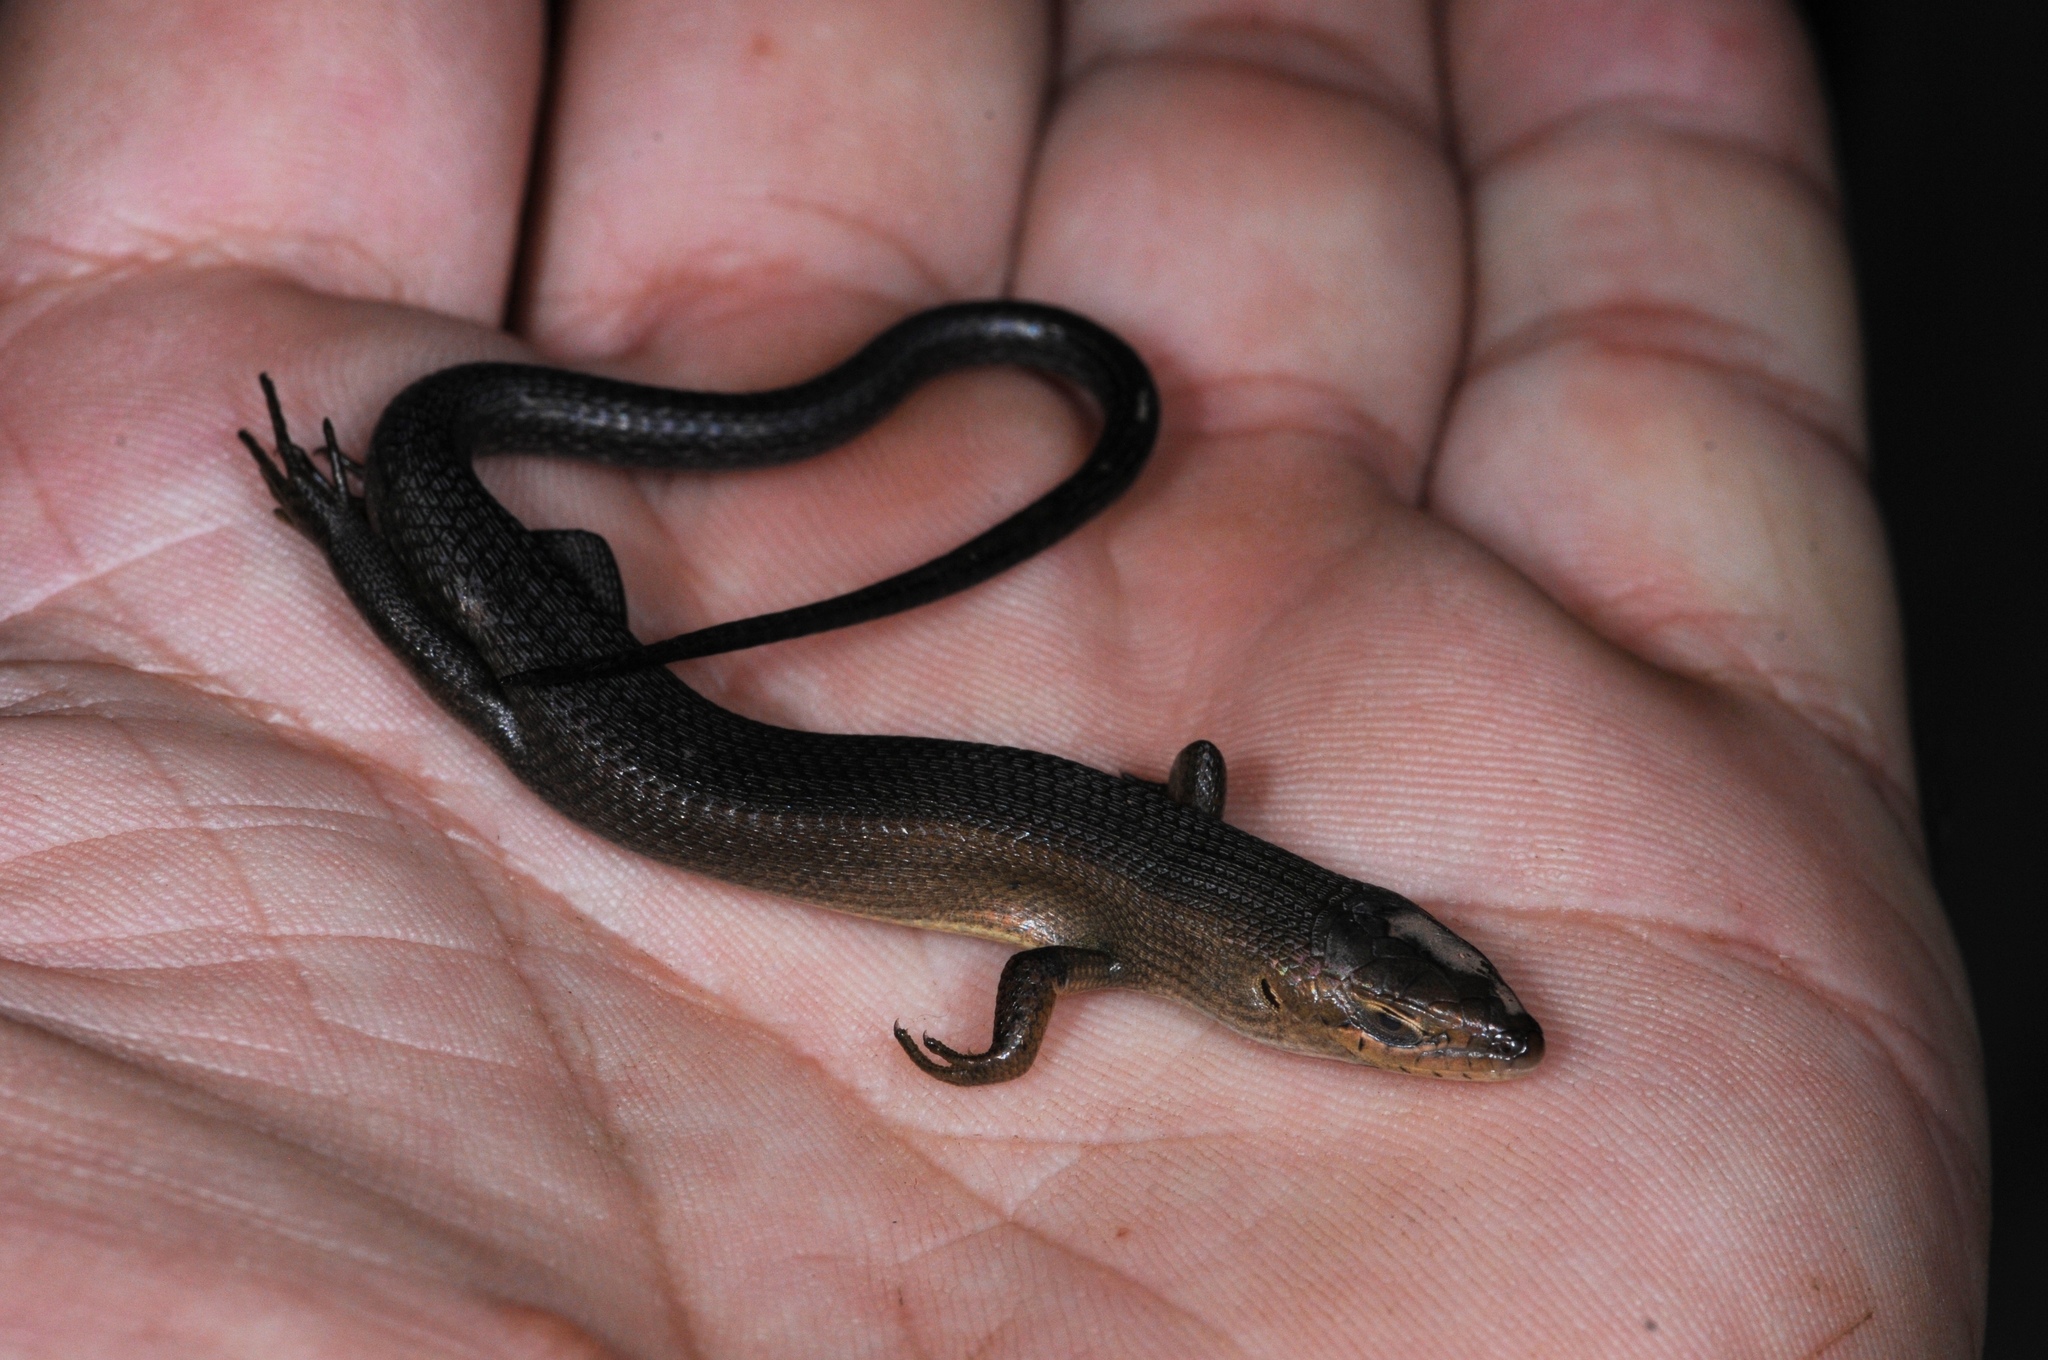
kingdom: Animalia
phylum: Chordata
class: Squamata
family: Scincidae
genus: Trachylepis
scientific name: Trachylepis boulengeri
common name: Boulenger's mabuya
